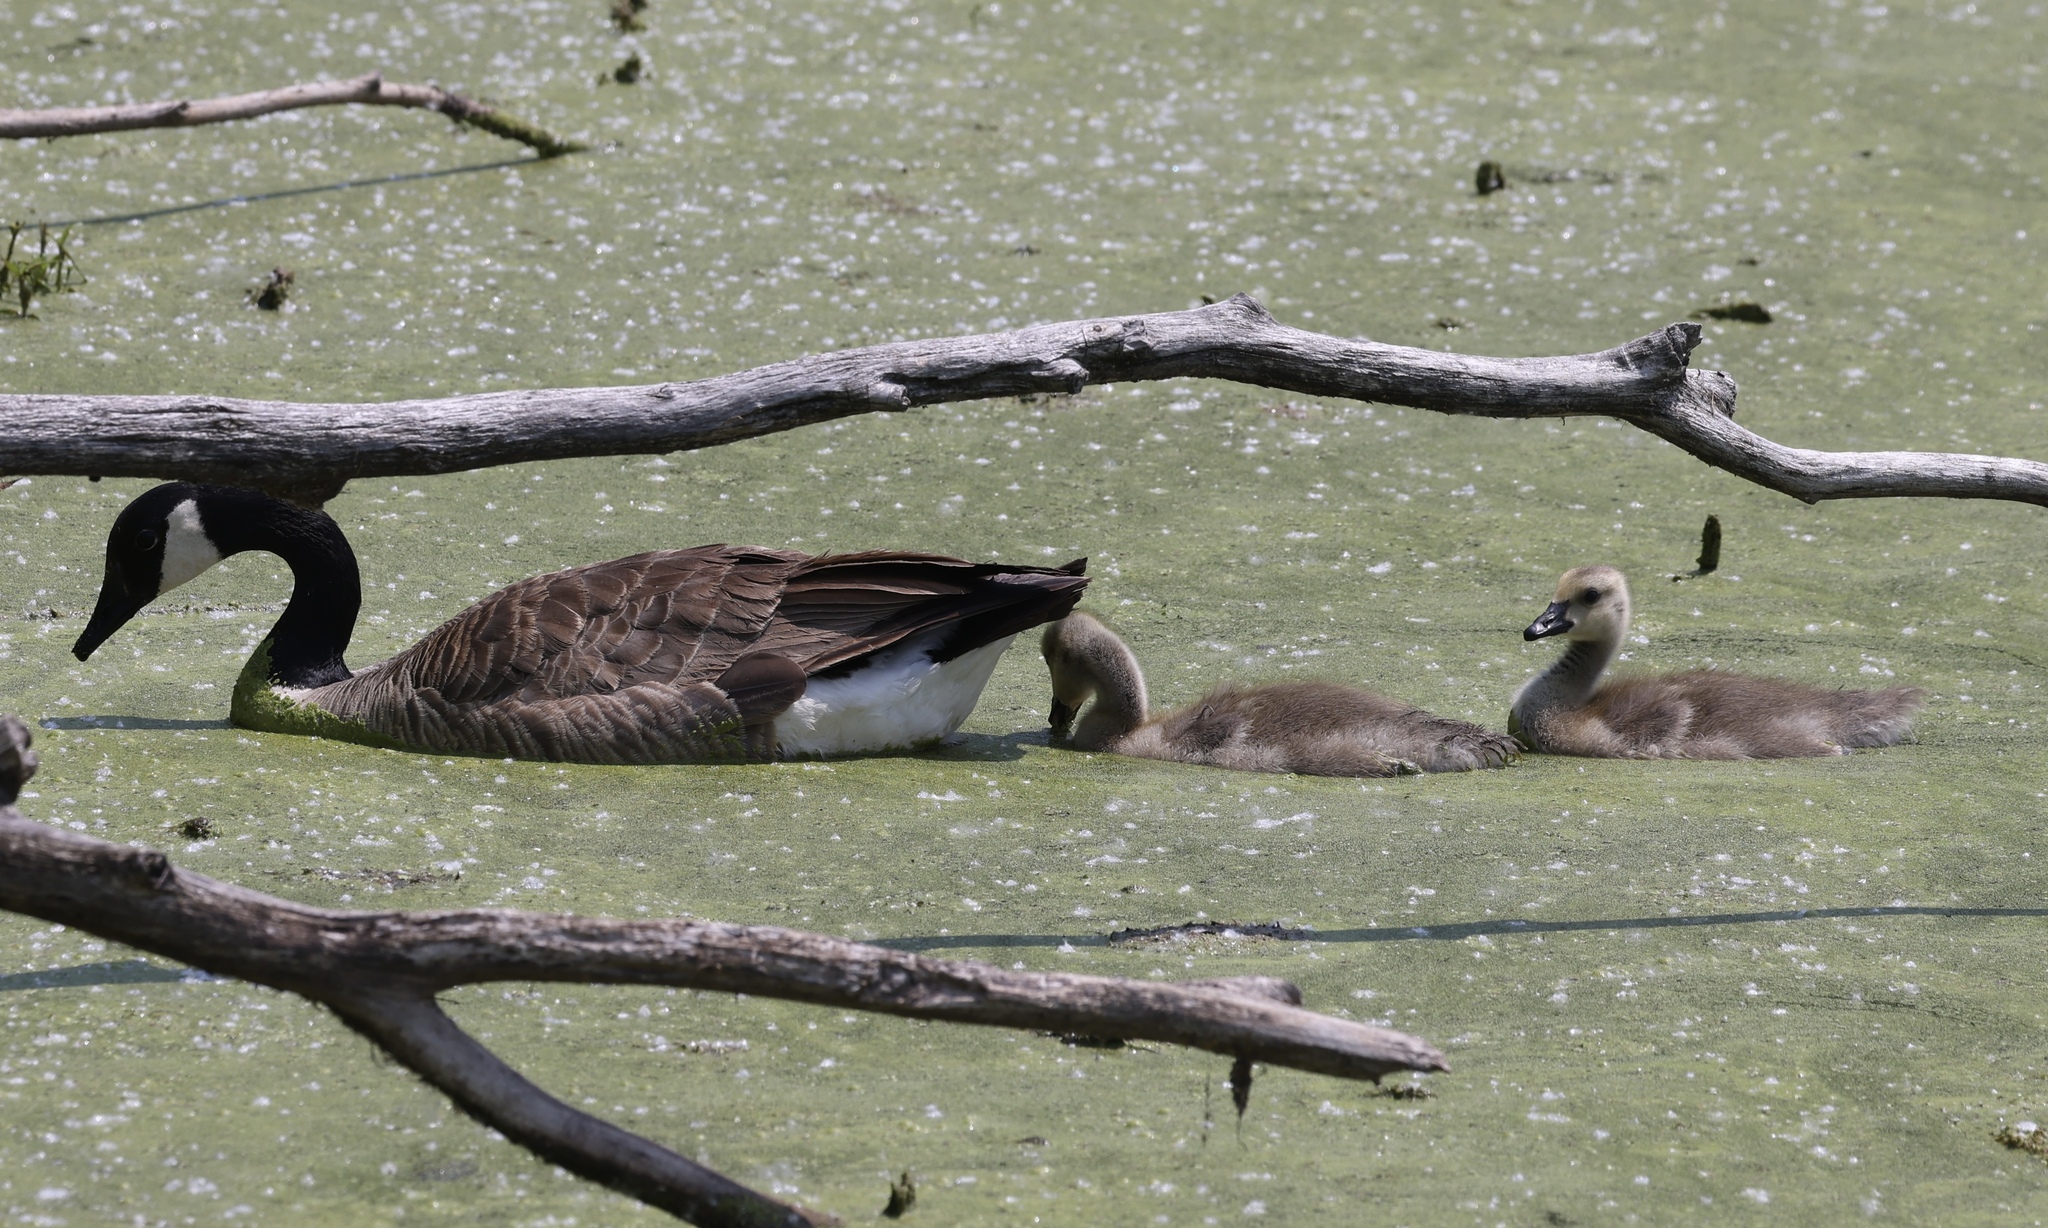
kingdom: Animalia
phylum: Chordata
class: Aves
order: Anseriformes
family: Anatidae
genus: Branta
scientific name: Branta canadensis
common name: Canada goose
